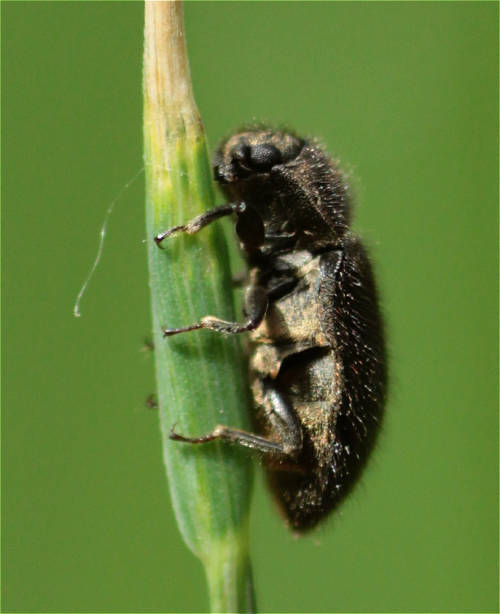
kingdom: Animalia
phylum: Arthropoda
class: Insecta
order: Coleoptera
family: Dryopidae
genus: Dryops
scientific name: Dryops ernesti
